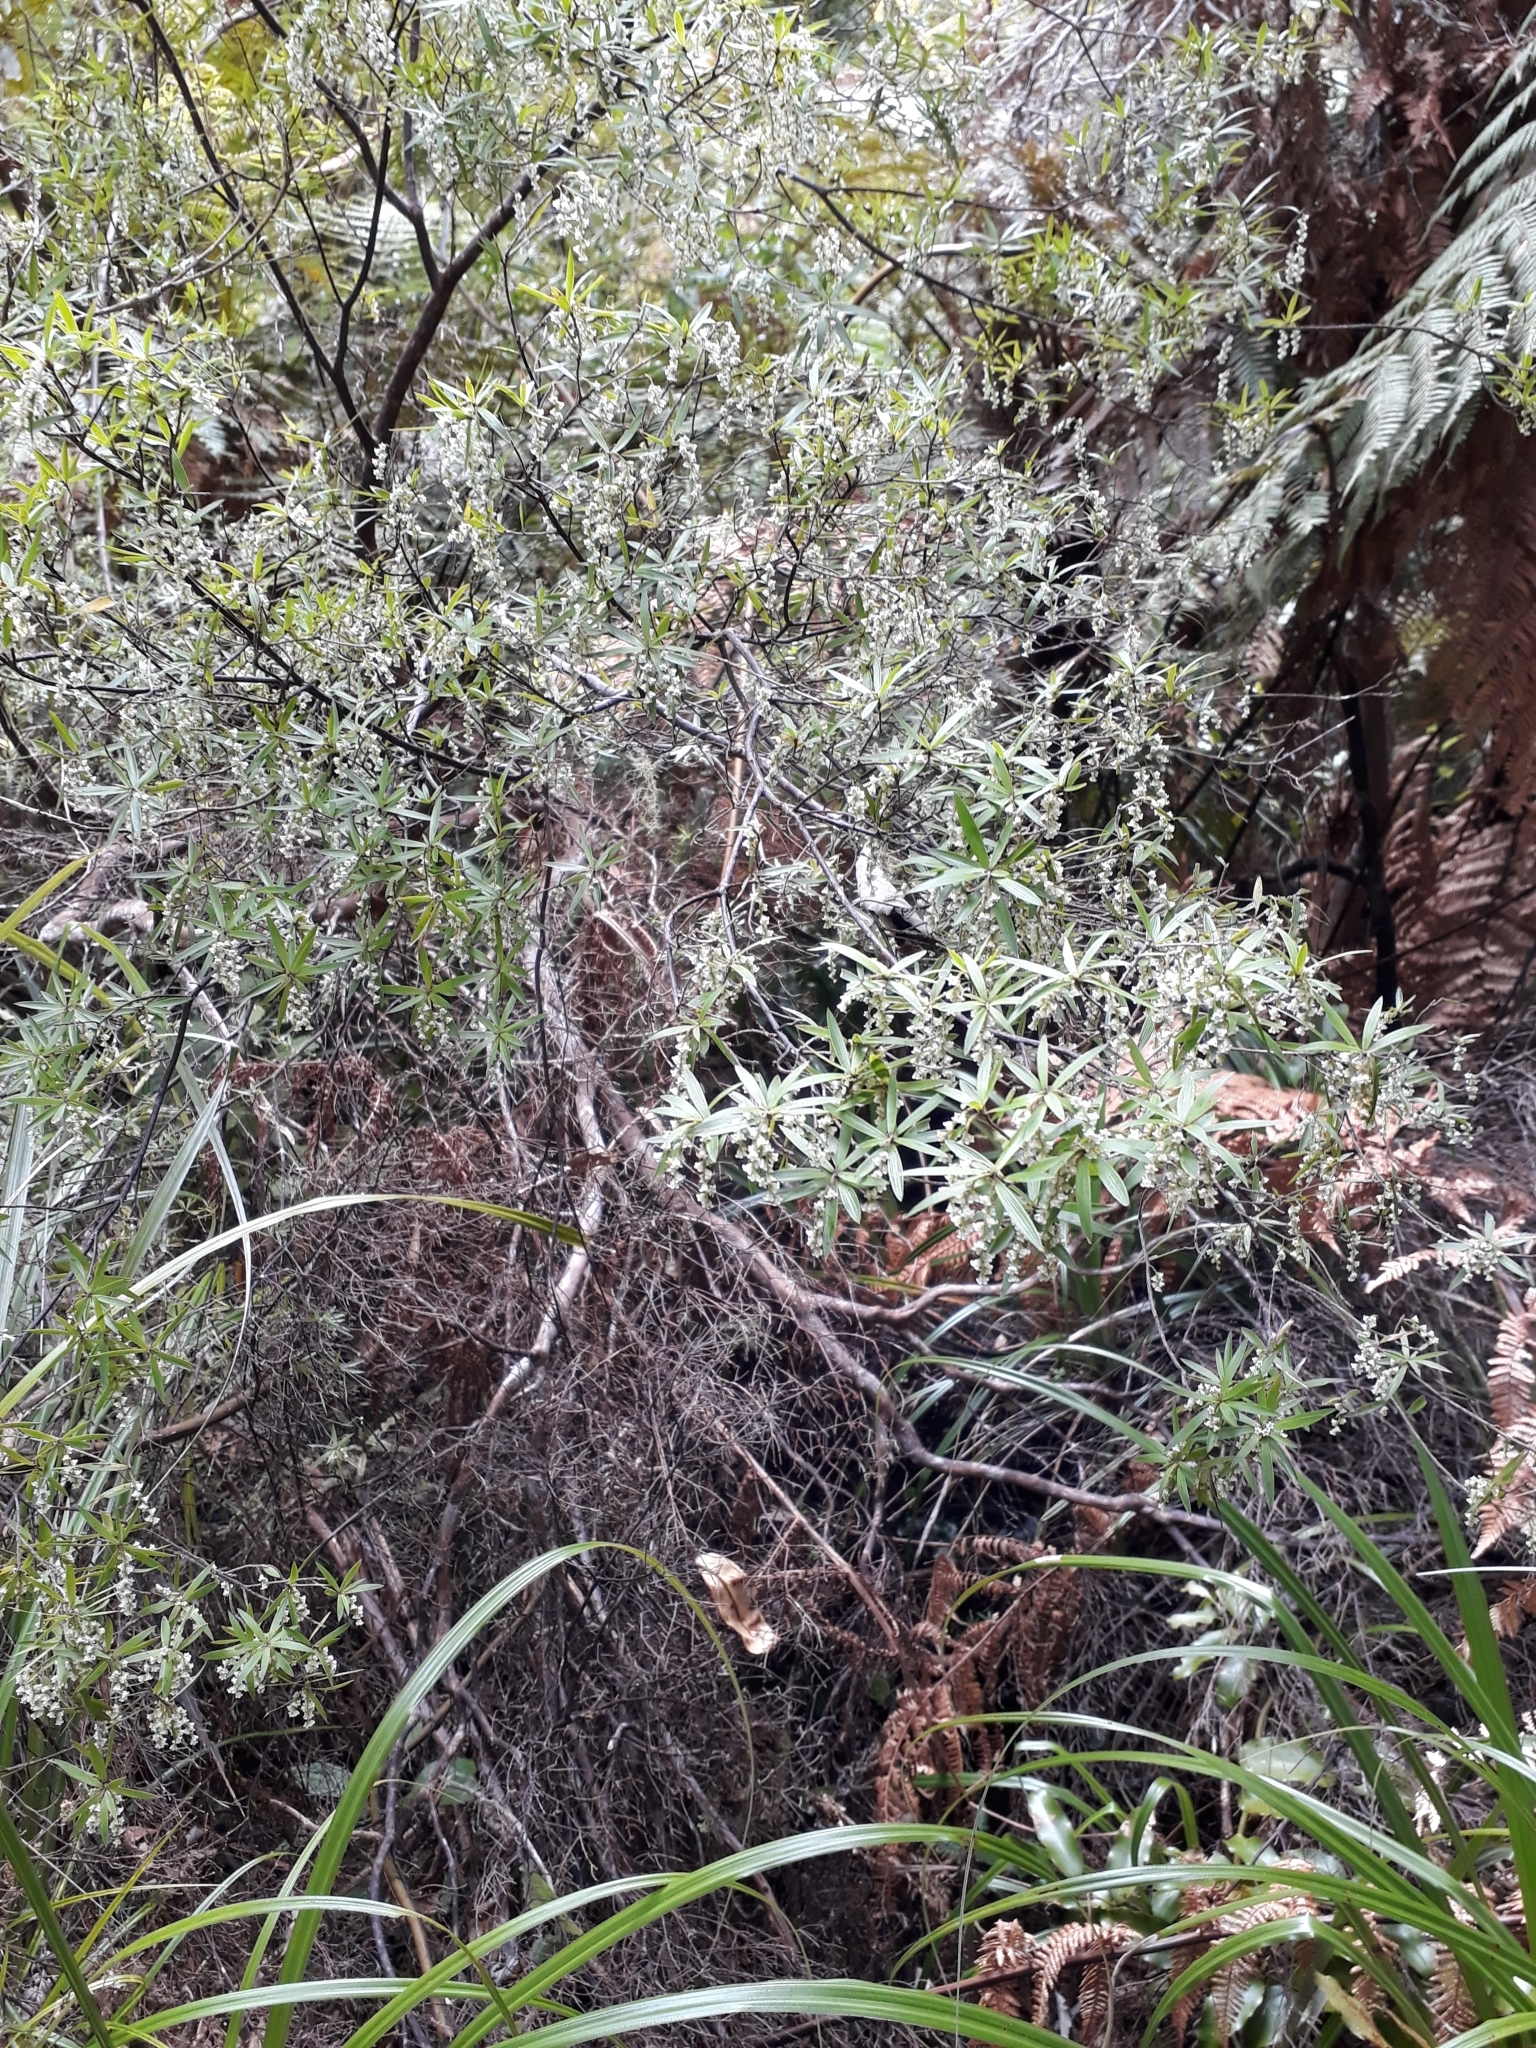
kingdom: Plantae
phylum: Tracheophyta
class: Magnoliopsida
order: Ericales
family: Ericaceae
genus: Leucopogon
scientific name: Leucopogon fasciculatus
